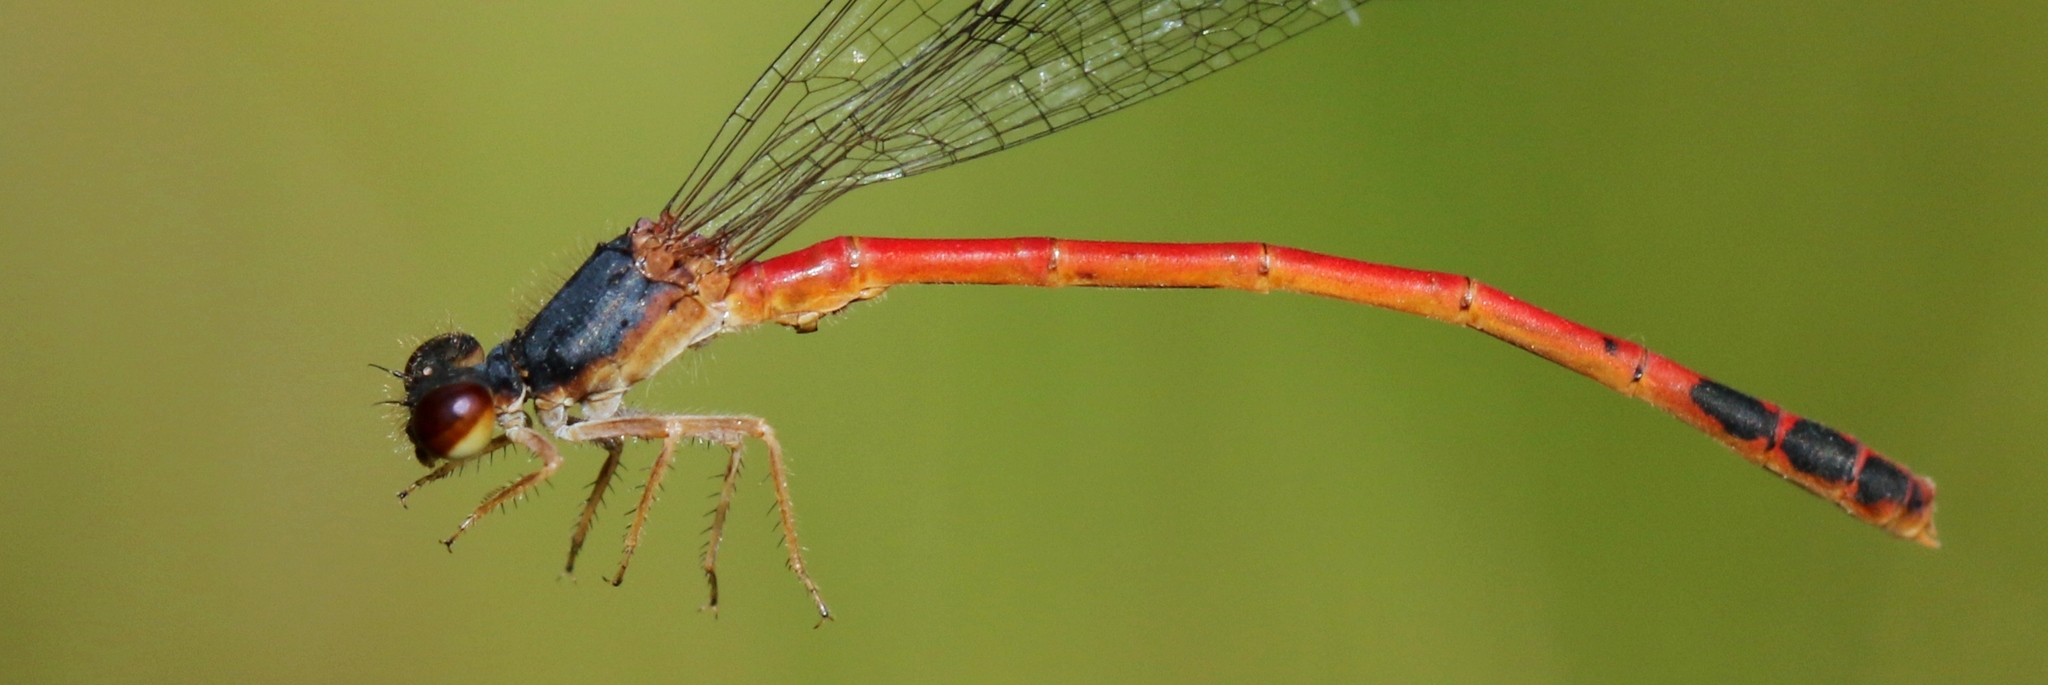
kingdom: Animalia
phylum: Arthropoda
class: Insecta
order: Odonata
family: Coenagrionidae
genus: Amphiagrion
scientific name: Amphiagrion saucium
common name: Eastern red damsel
